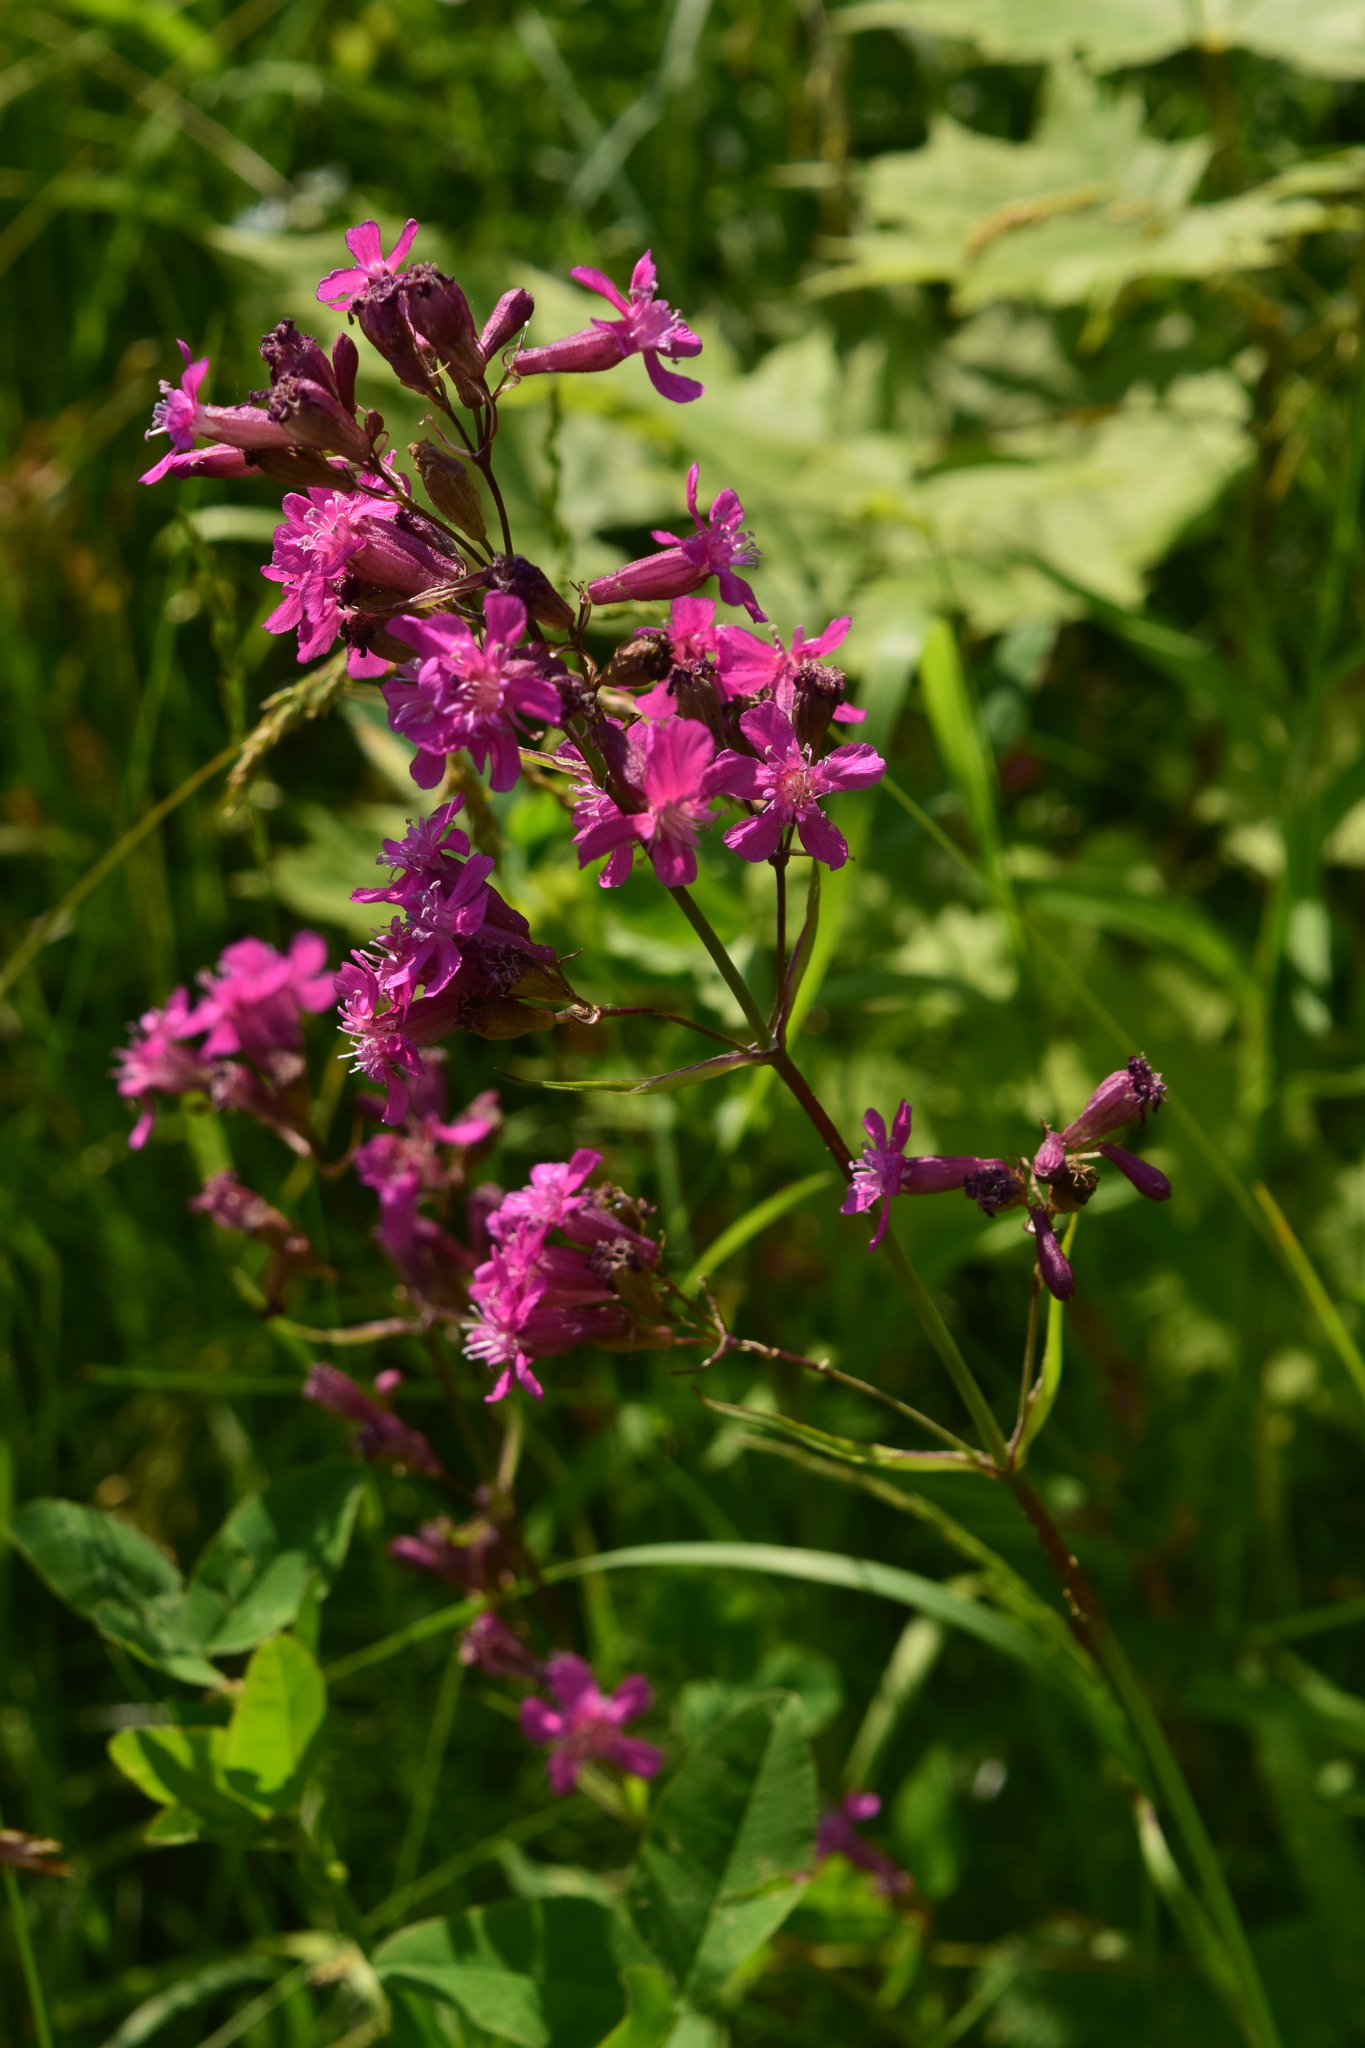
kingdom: Plantae
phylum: Tracheophyta
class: Magnoliopsida
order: Caryophyllales
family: Caryophyllaceae
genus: Viscaria
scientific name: Viscaria vulgaris
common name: Clammy campion
